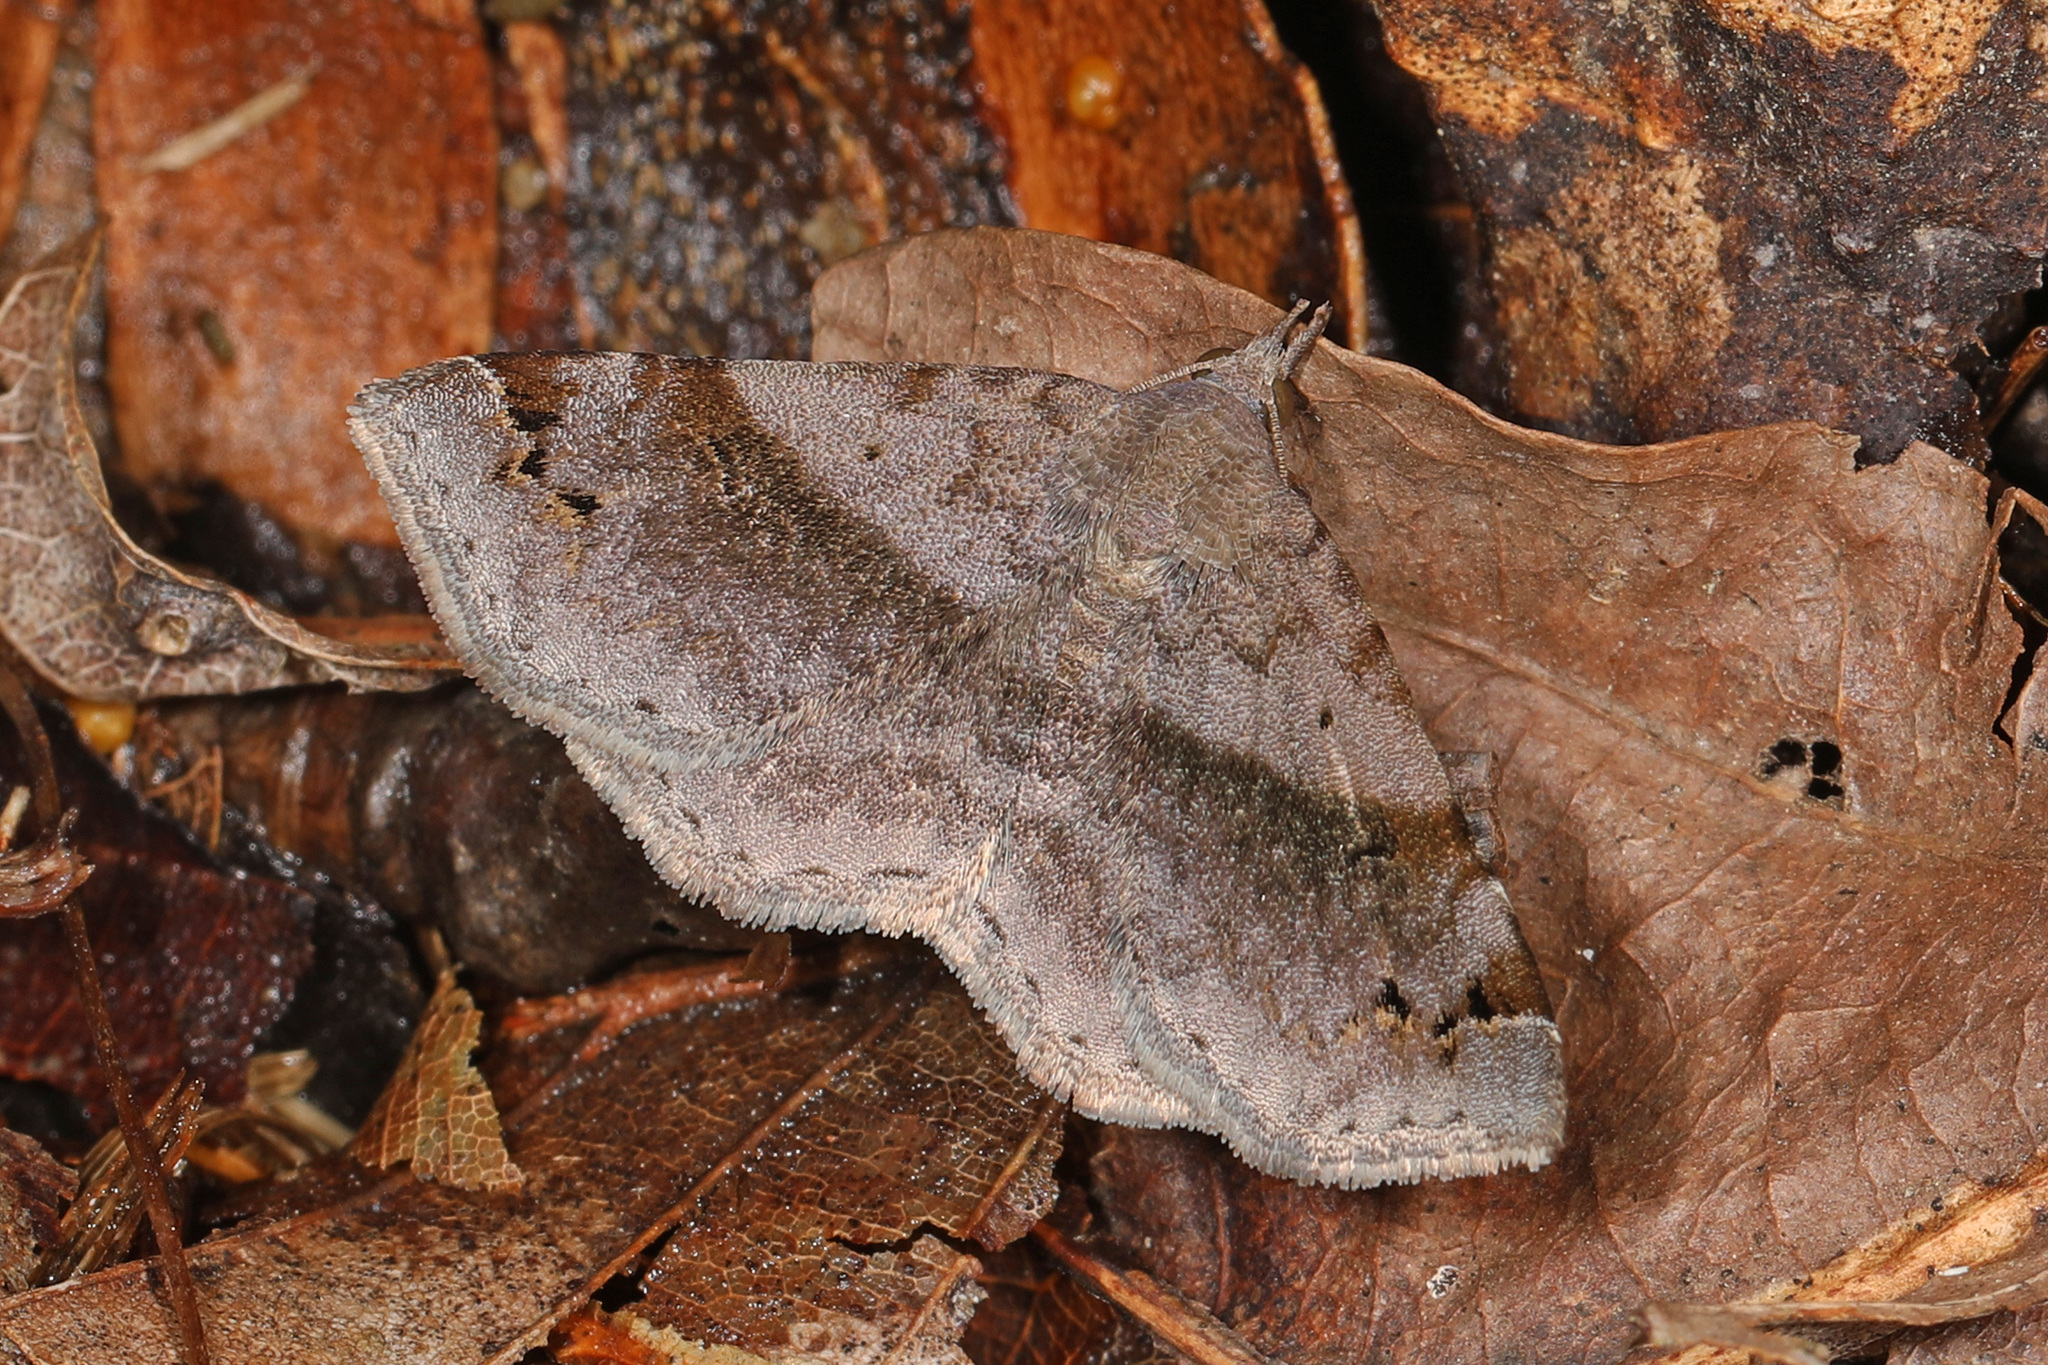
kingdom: Animalia
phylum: Arthropoda
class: Insecta
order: Lepidoptera
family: Erebidae
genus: Spargaloma
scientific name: Spargaloma sexpunctata
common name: Six-spotted gray
